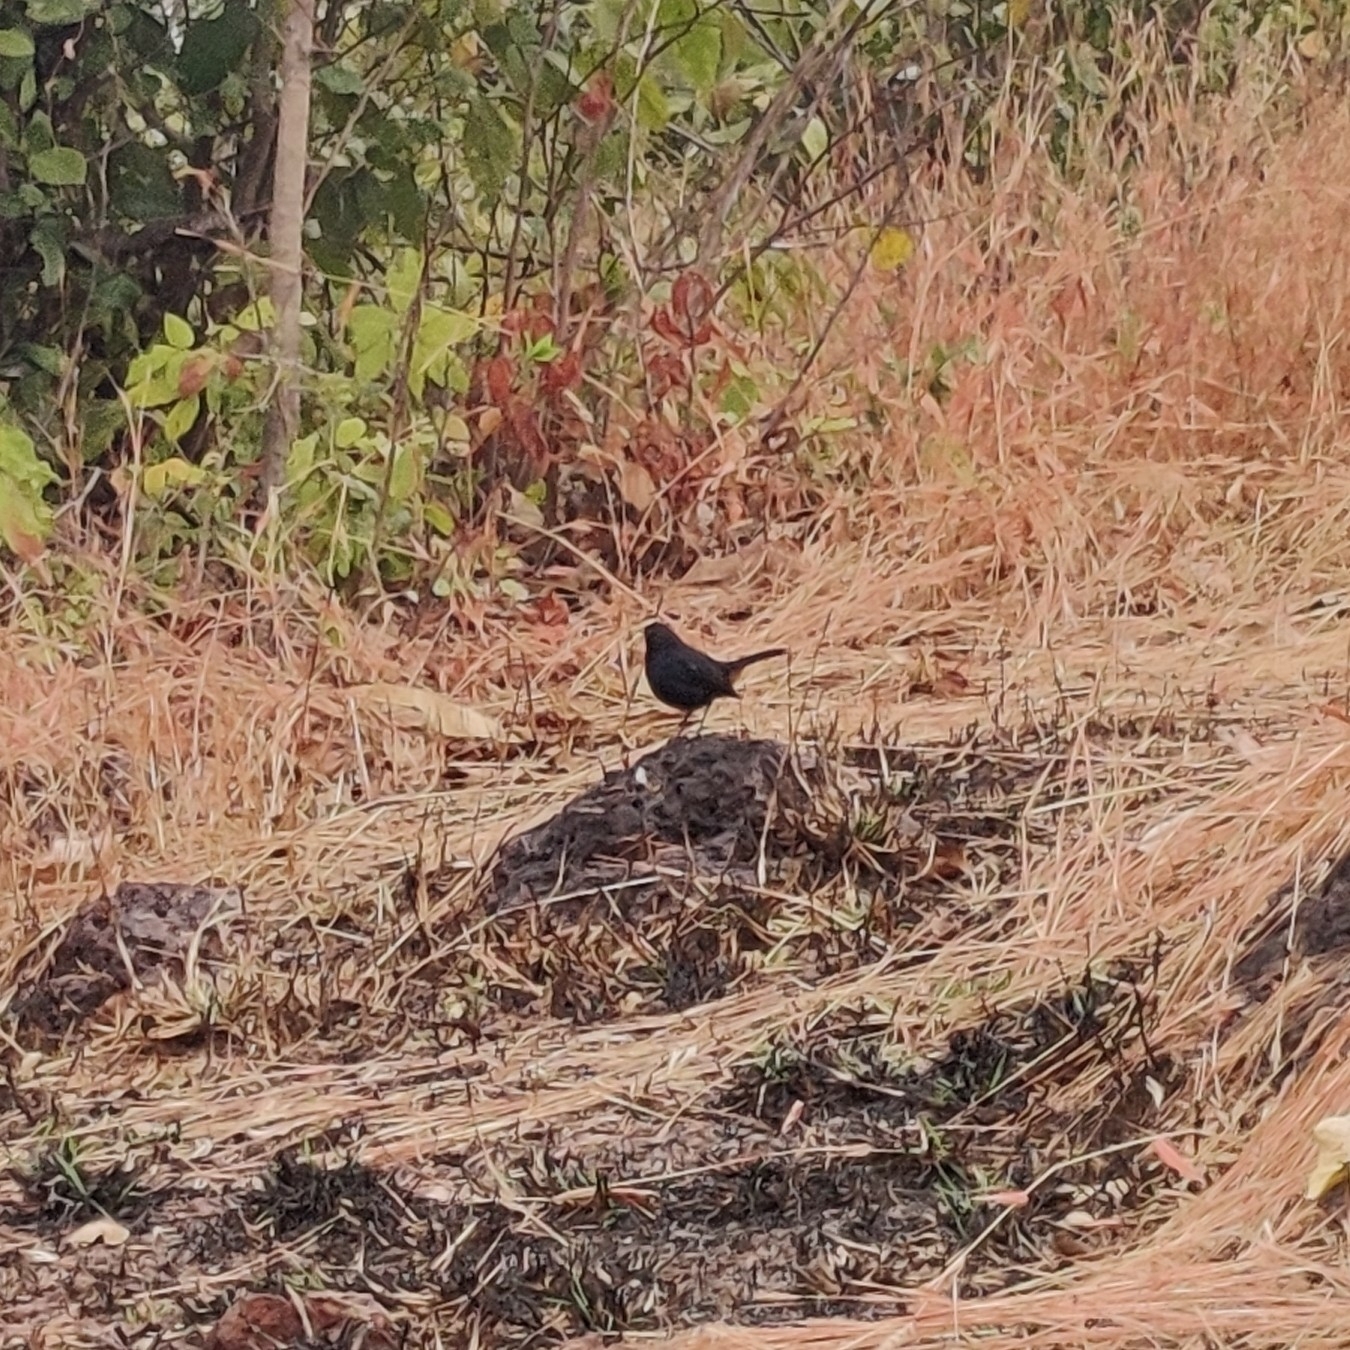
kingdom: Animalia
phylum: Chordata
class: Aves
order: Passeriformes
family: Muscicapidae
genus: Saxicoloides
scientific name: Saxicoloides fulicatus
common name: Indian robin
